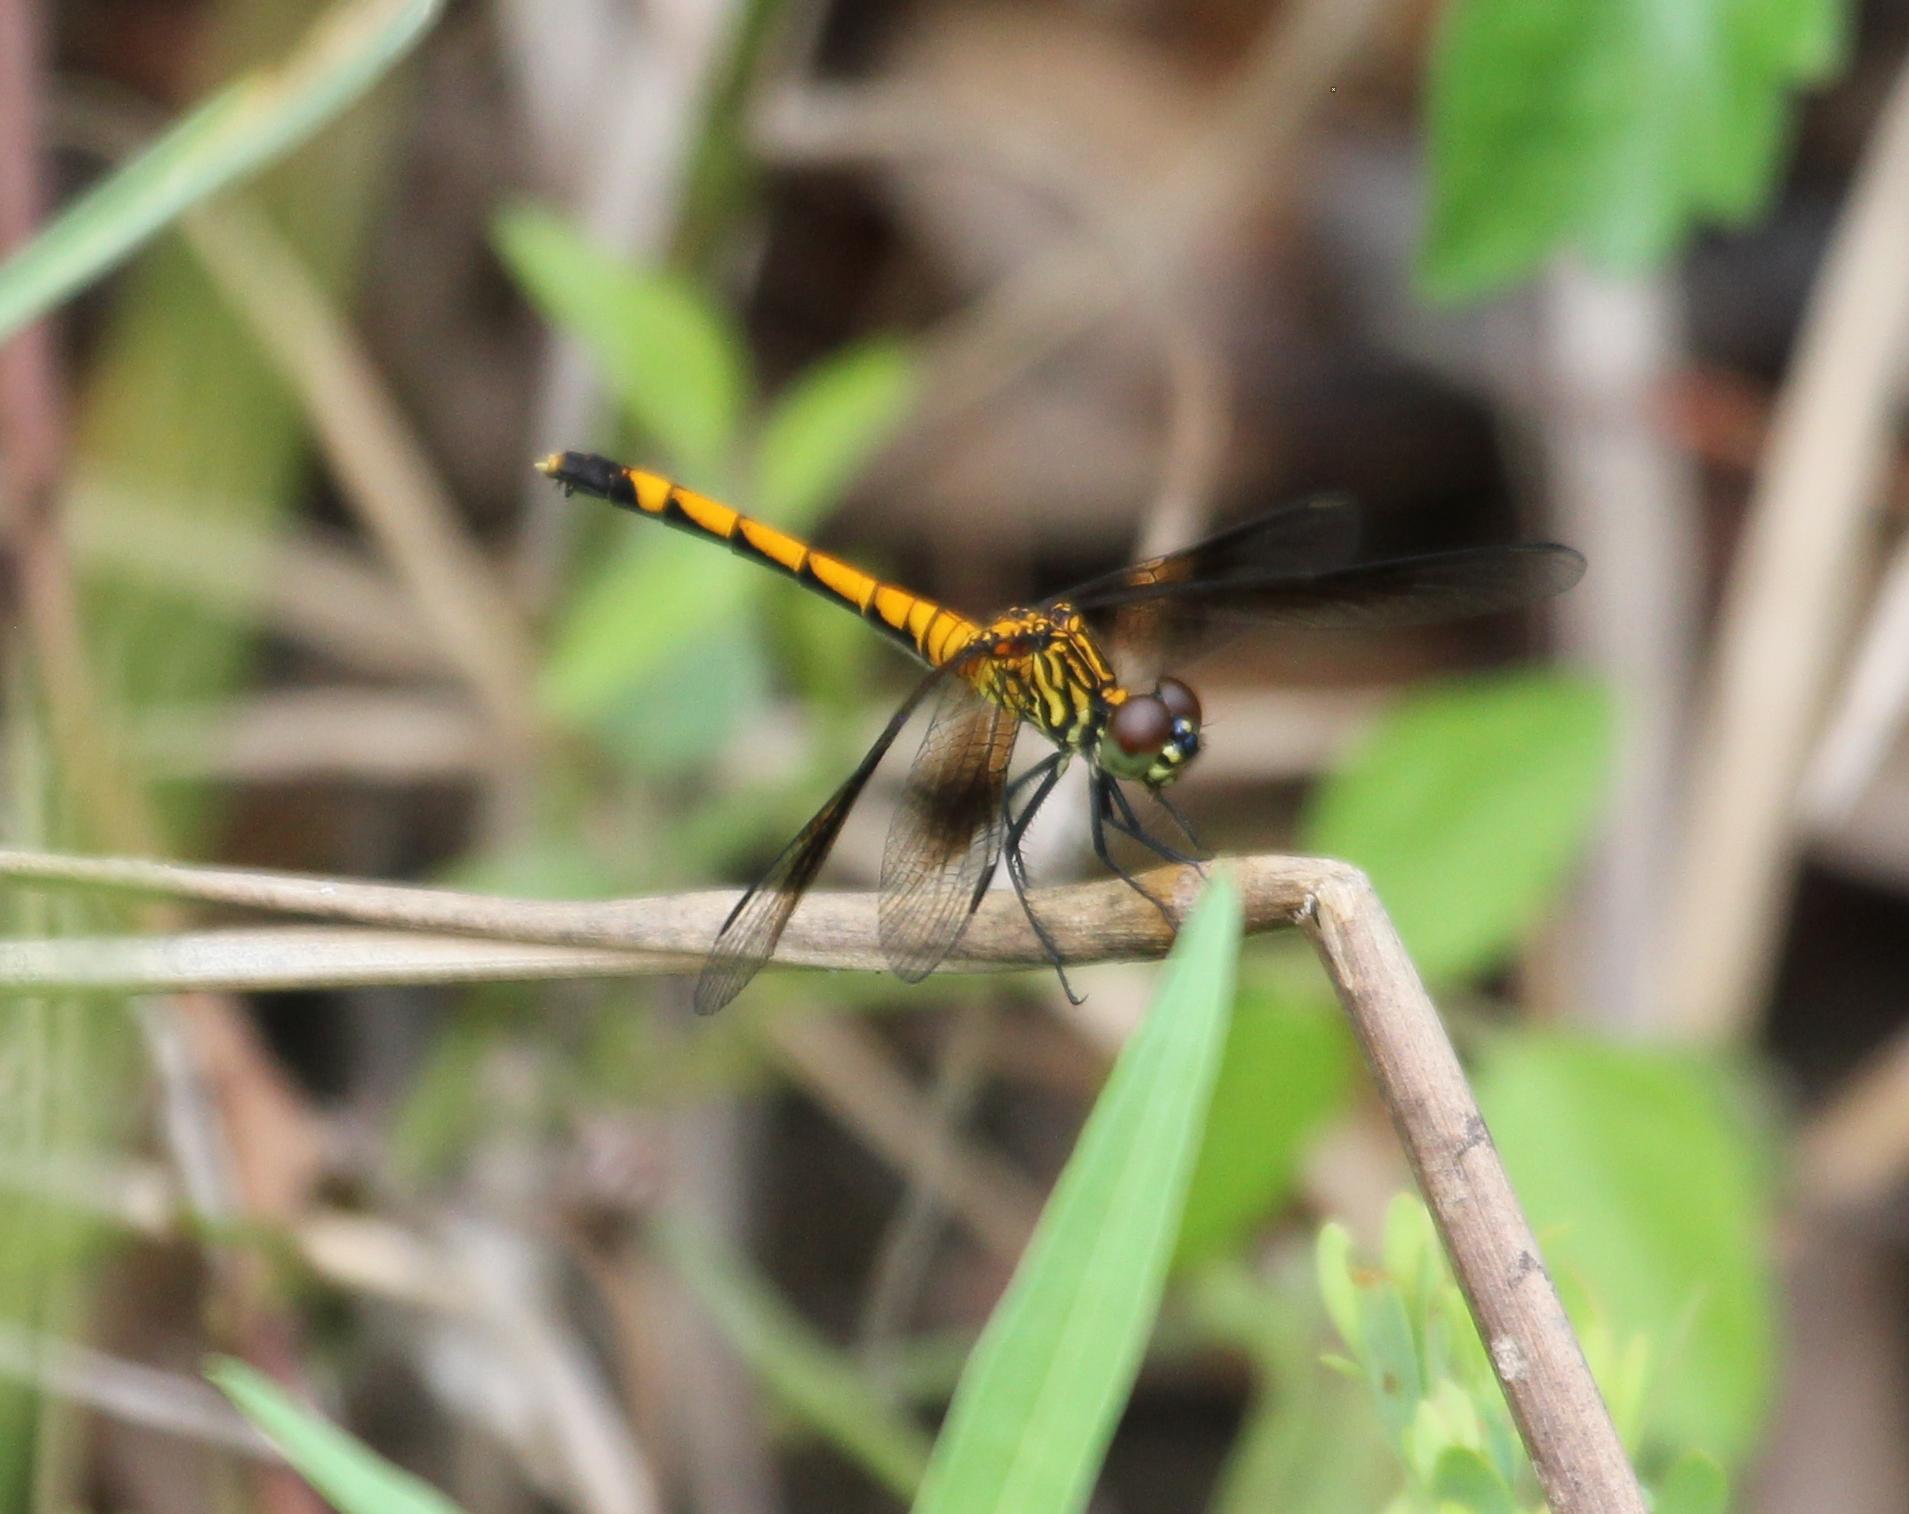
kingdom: Animalia
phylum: Arthropoda
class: Insecta
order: Odonata
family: Libellulidae
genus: Erythrodiplax
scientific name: Erythrodiplax berenice
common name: Seaside dragonlet
